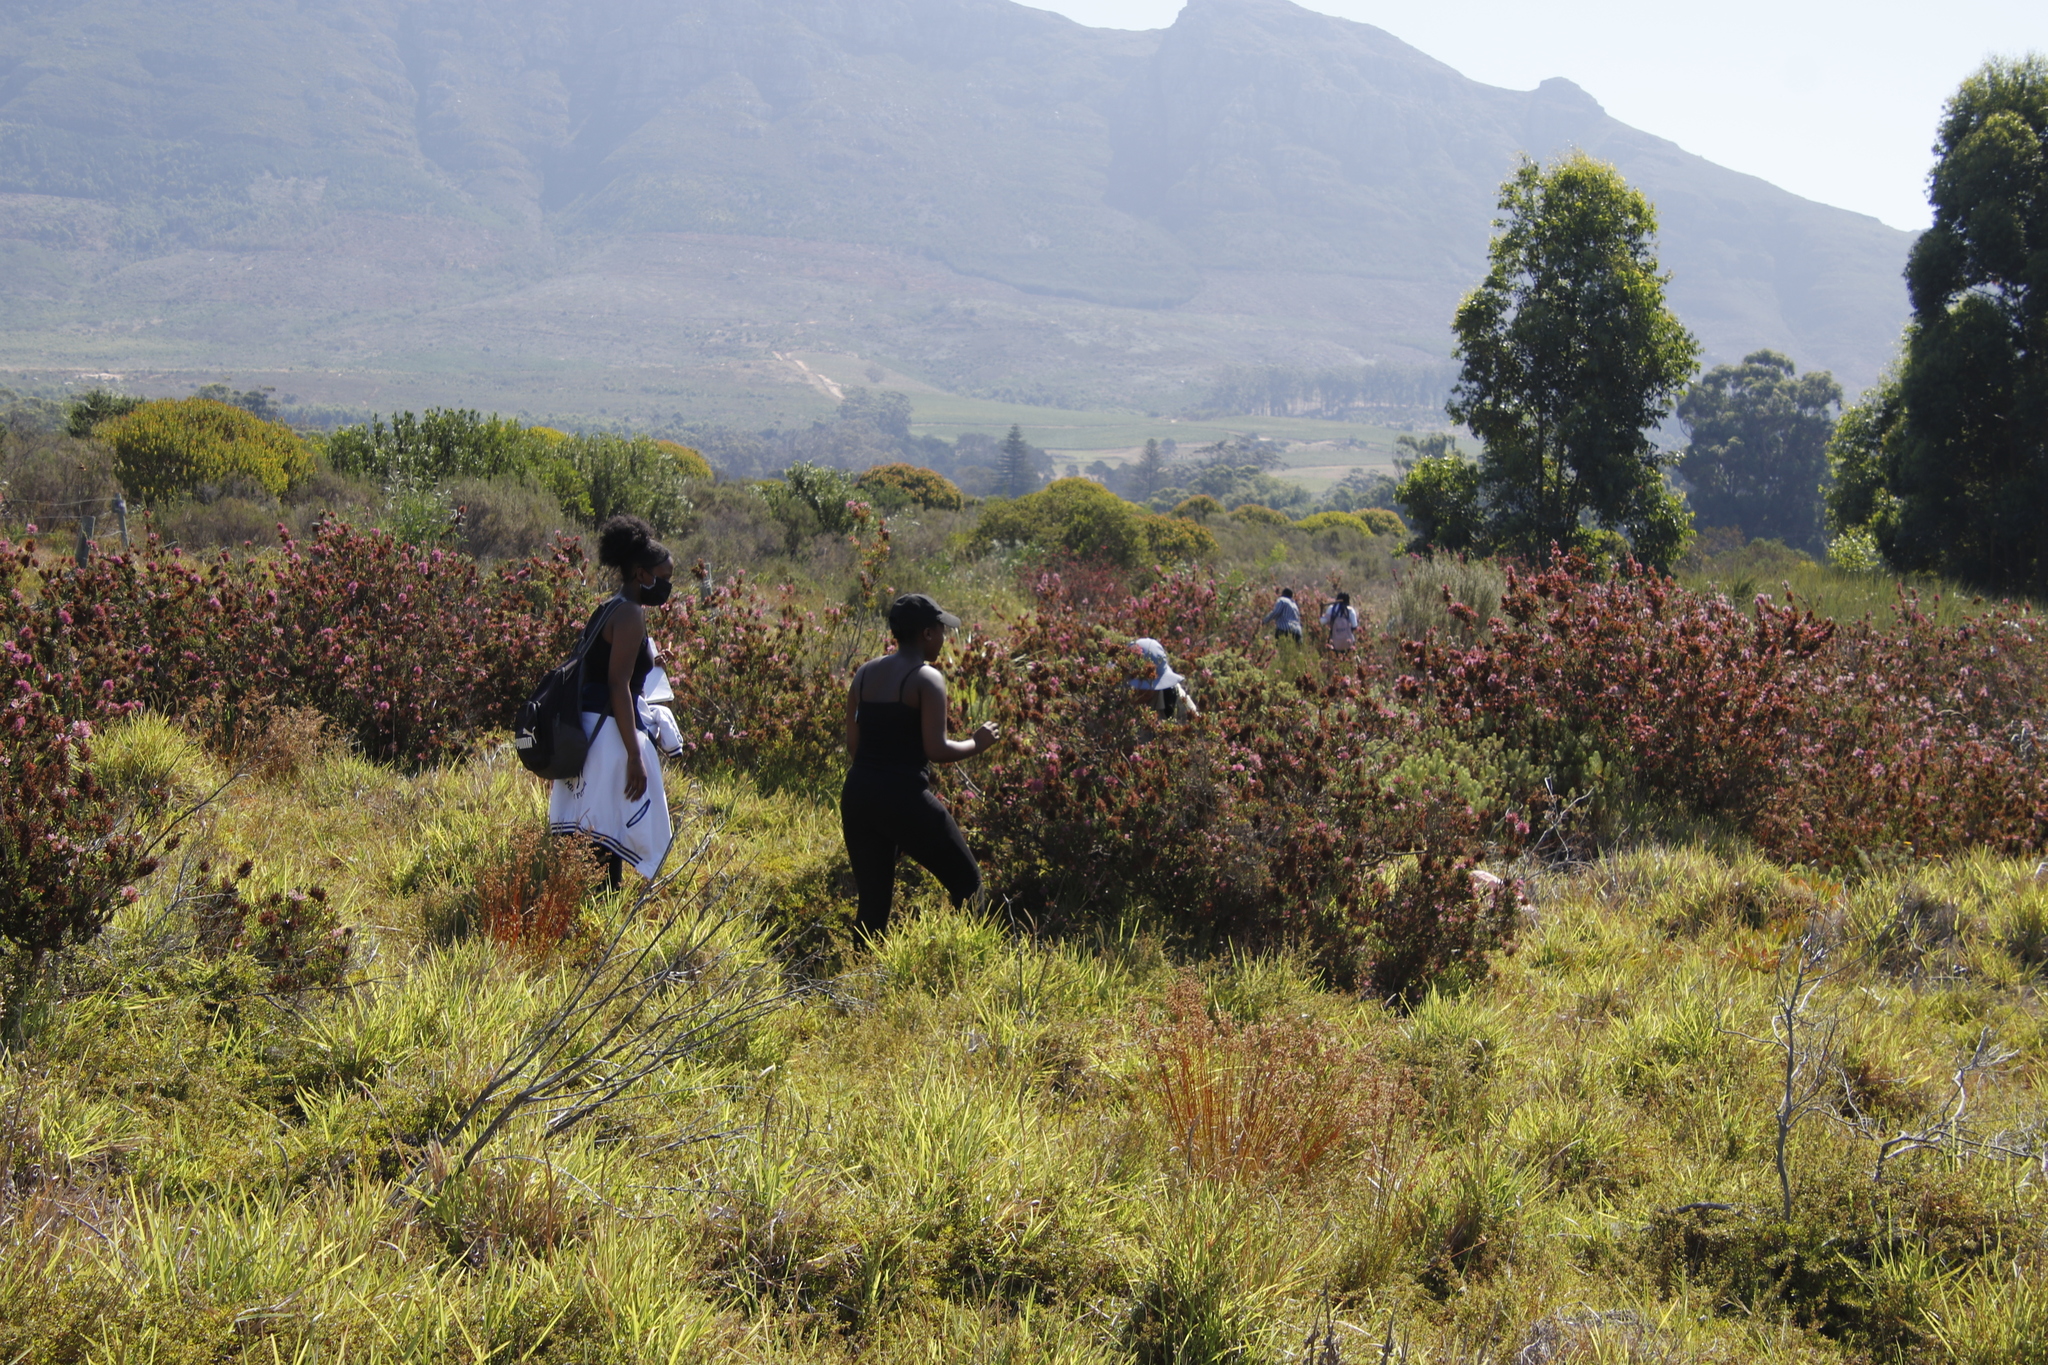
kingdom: Plantae
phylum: Tracheophyta
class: Magnoliopsida
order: Ericales
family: Ericaceae
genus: Erica
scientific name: Erica verticillata
